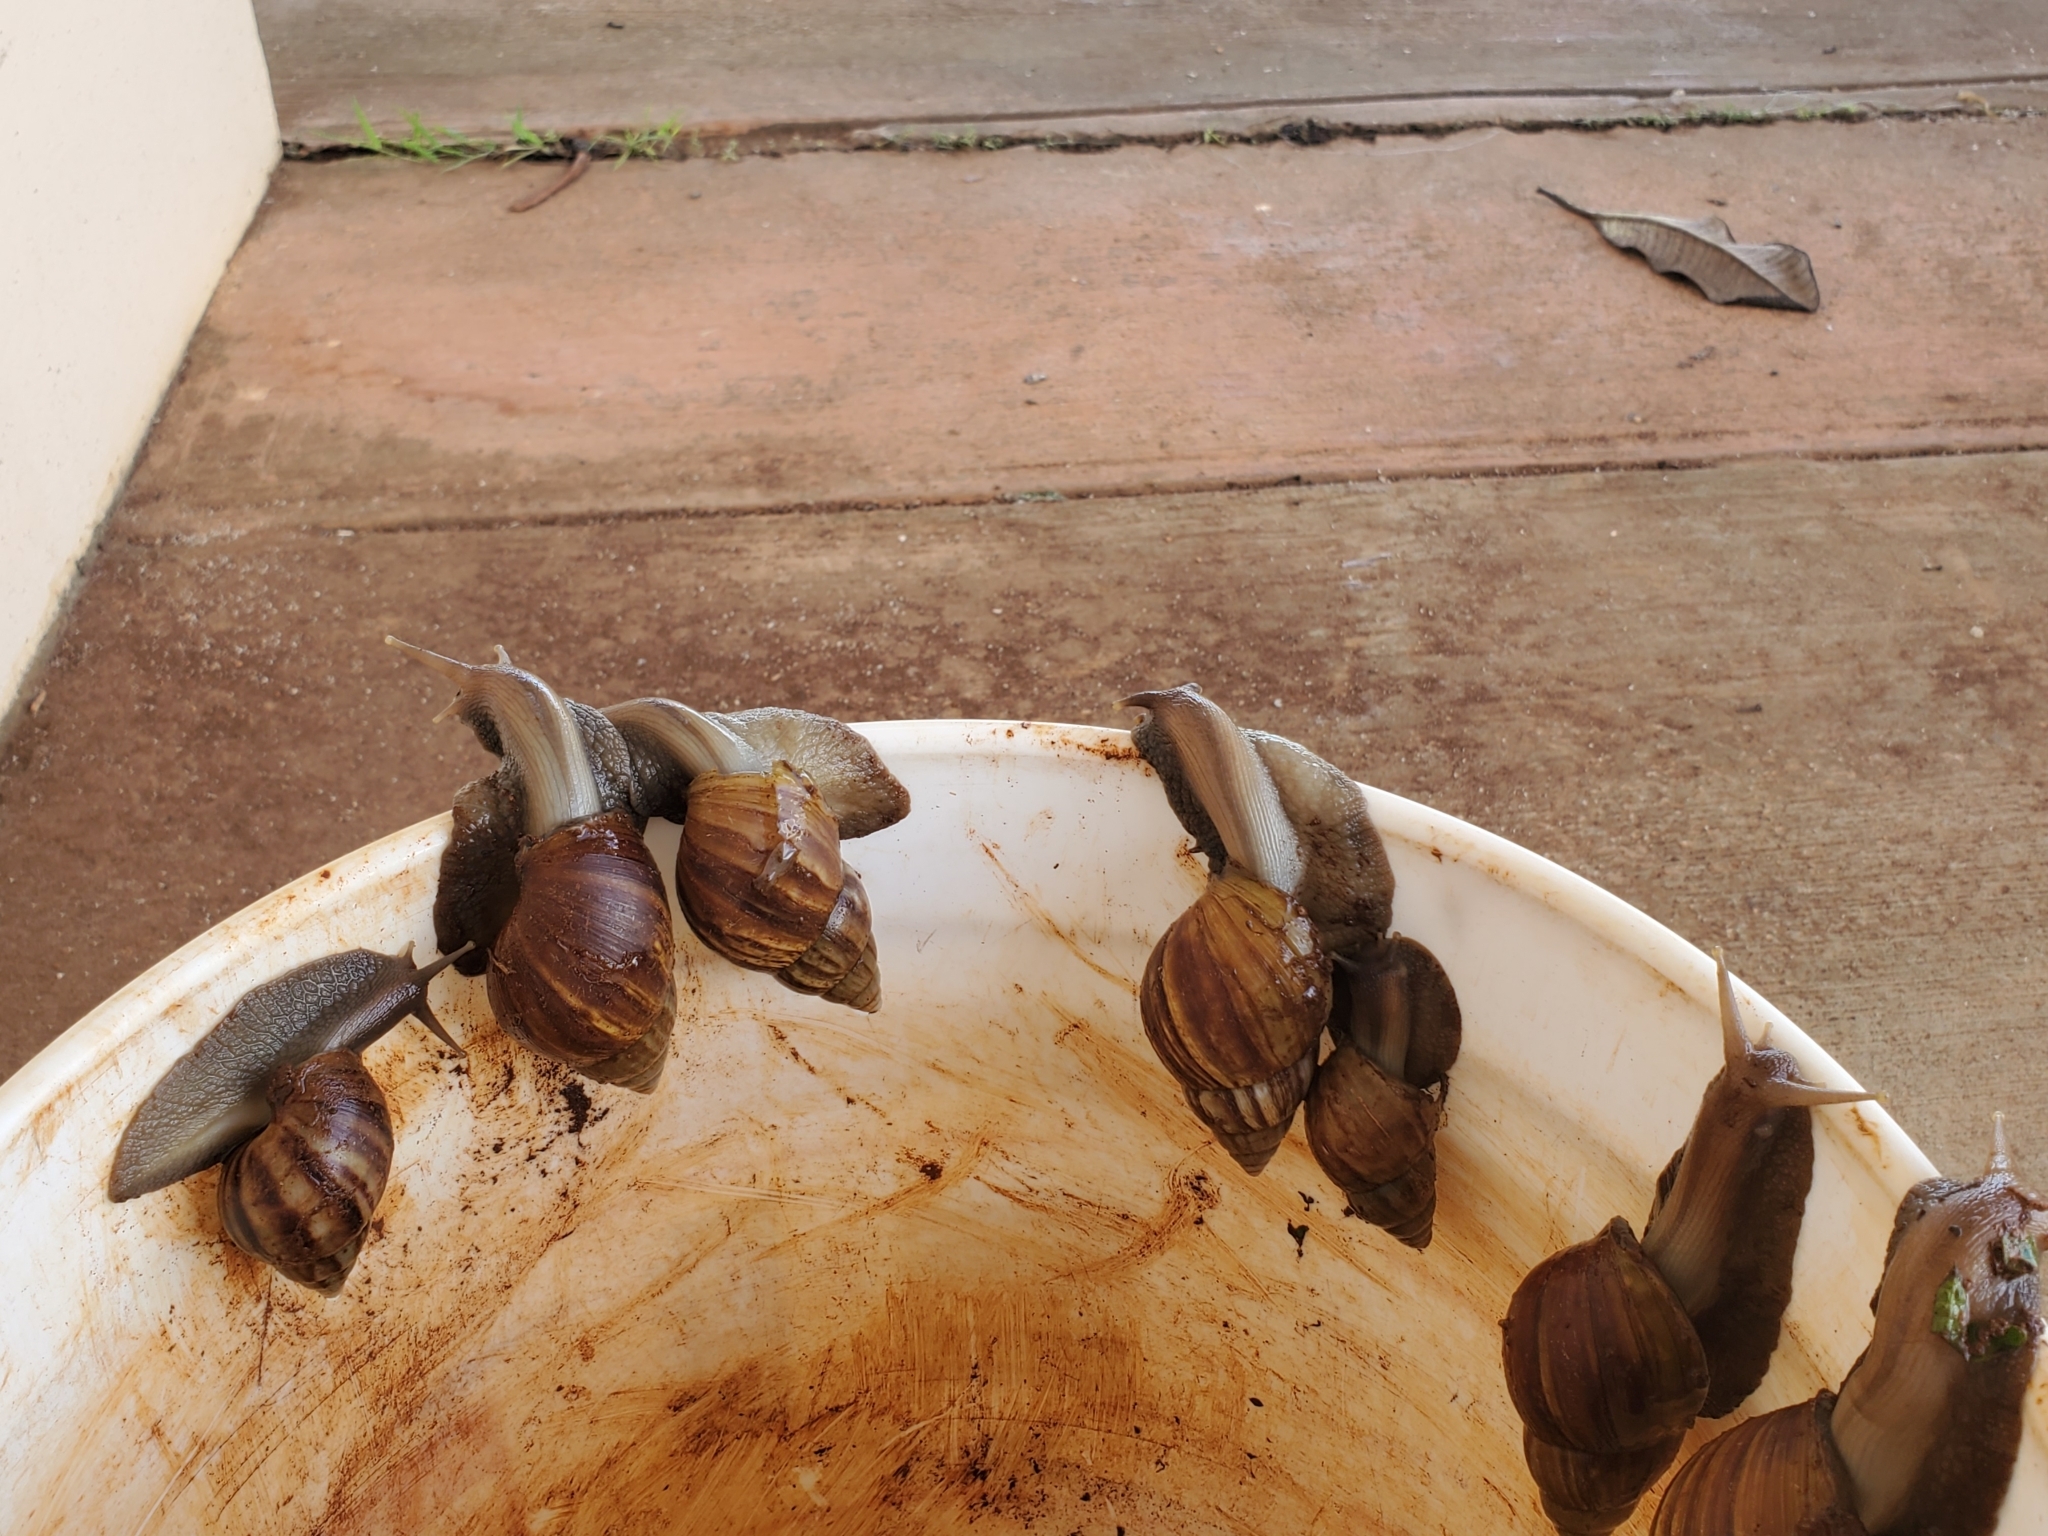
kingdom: Animalia
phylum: Mollusca
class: Gastropoda
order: Stylommatophora
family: Achatinidae
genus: Lissachatina
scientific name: Lissachatina fulica
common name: Giant african snail
